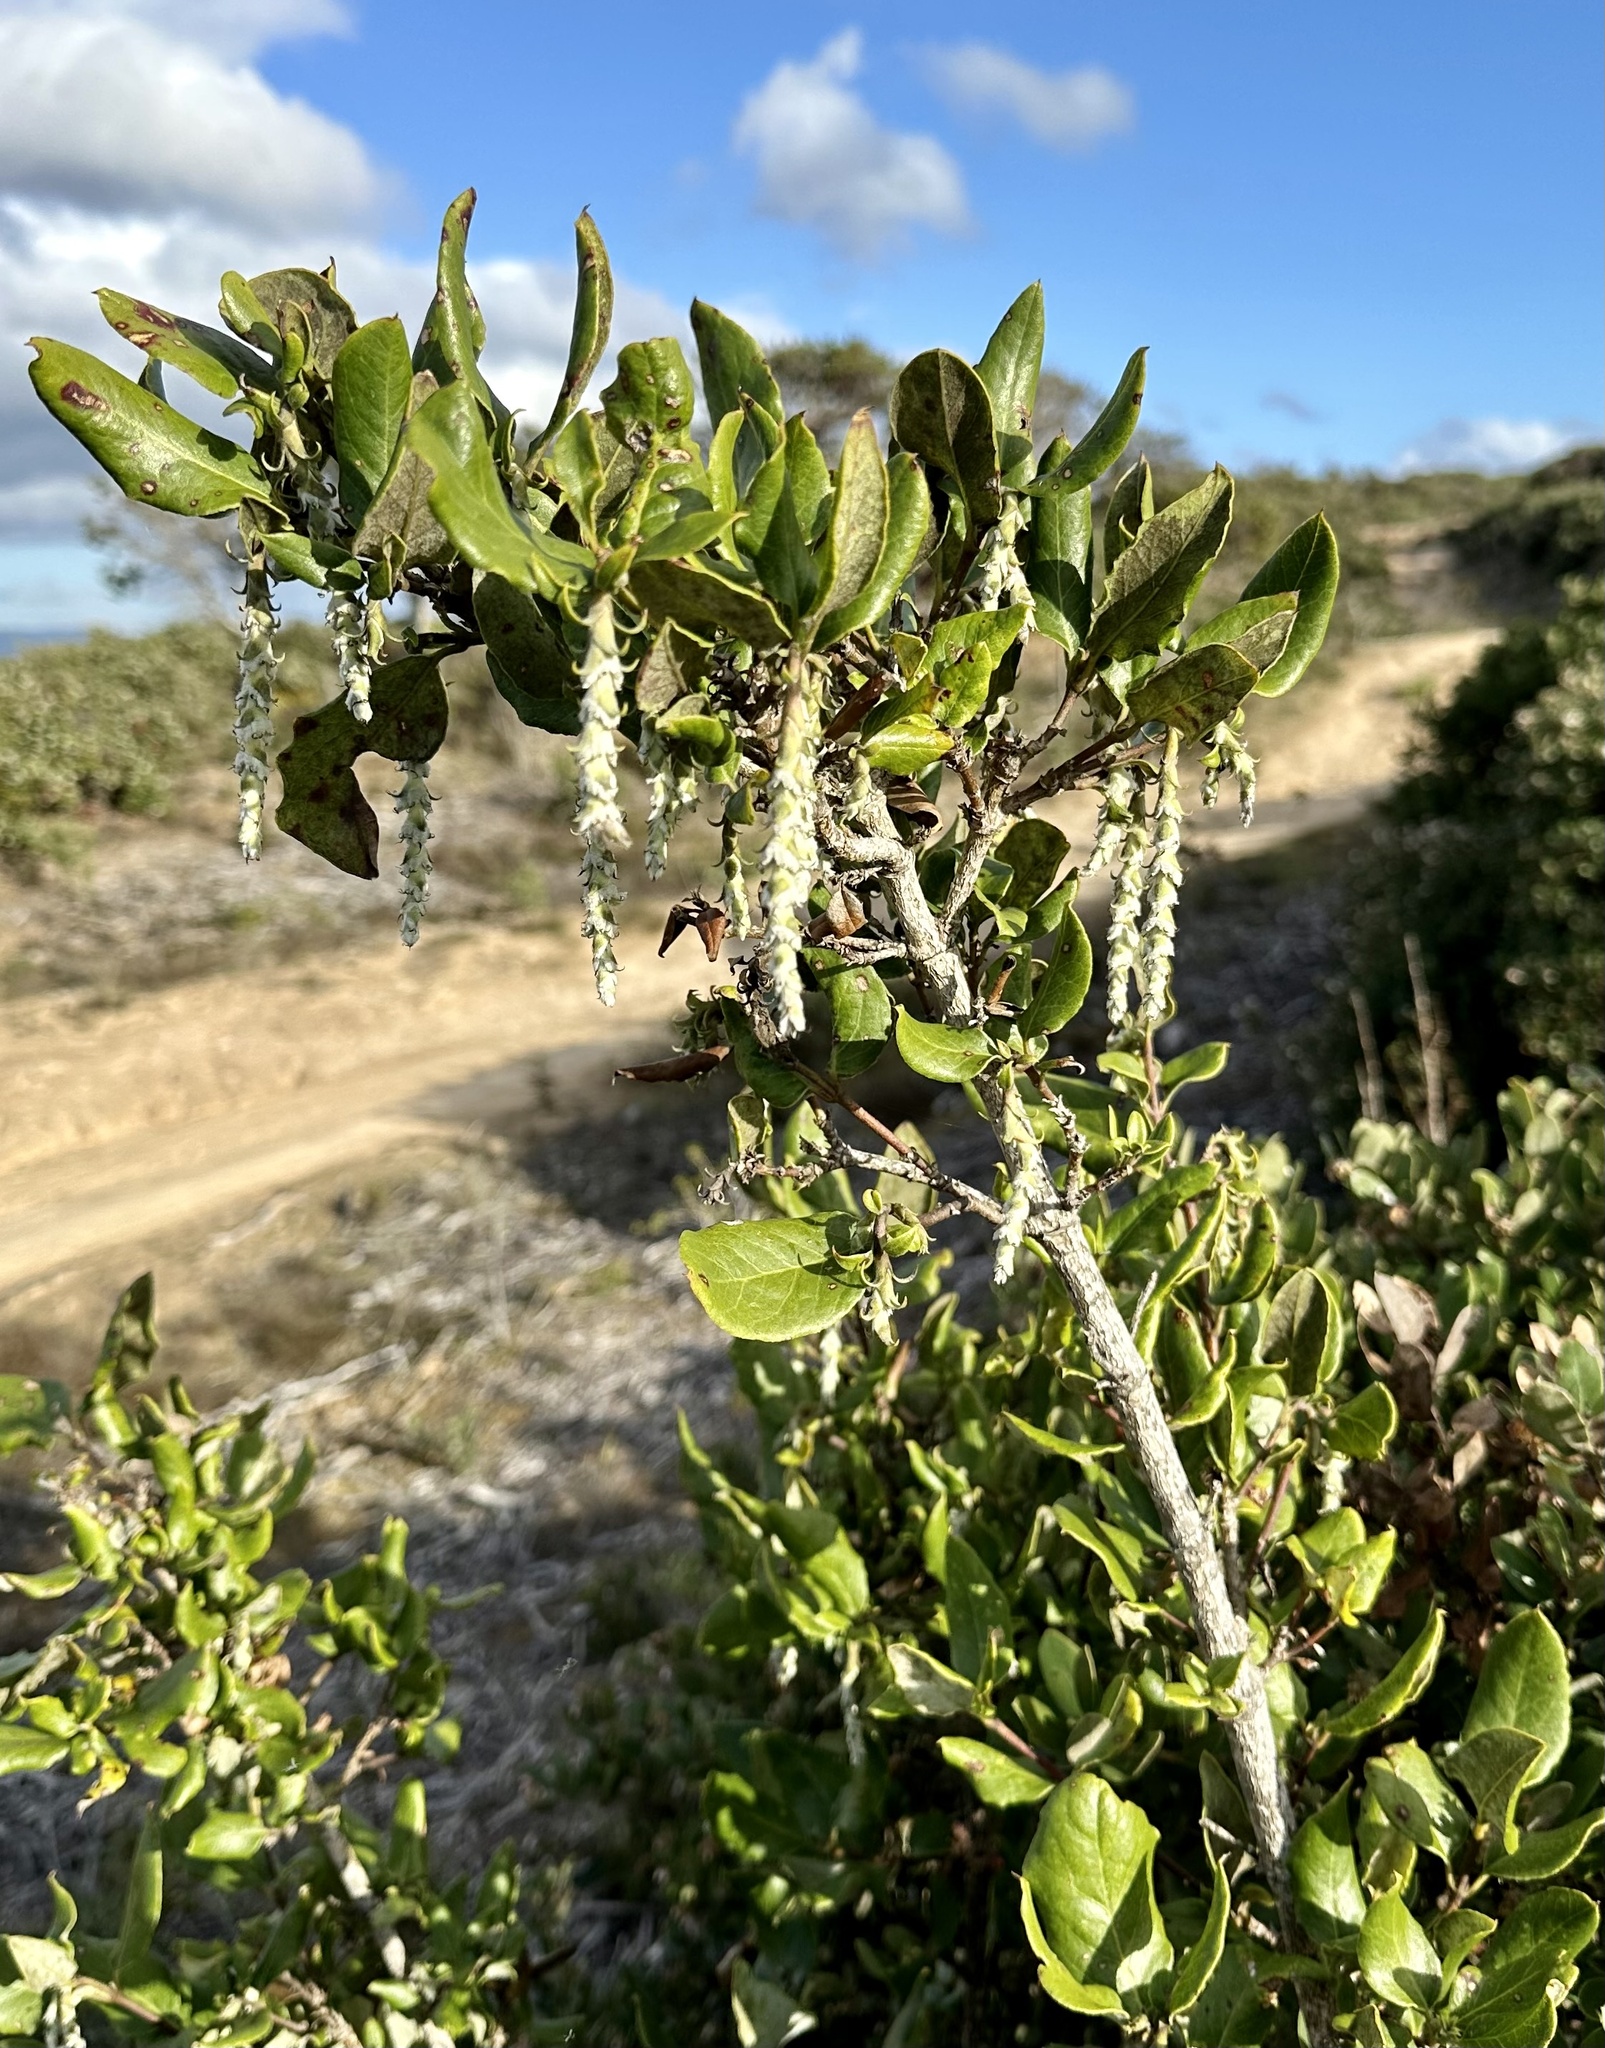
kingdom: Plantae
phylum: Tracheophyta
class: Magnoliopsida
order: Garryales
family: Garryaceae
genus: Garrya
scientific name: Garrya elliptica
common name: Silk-tassel
